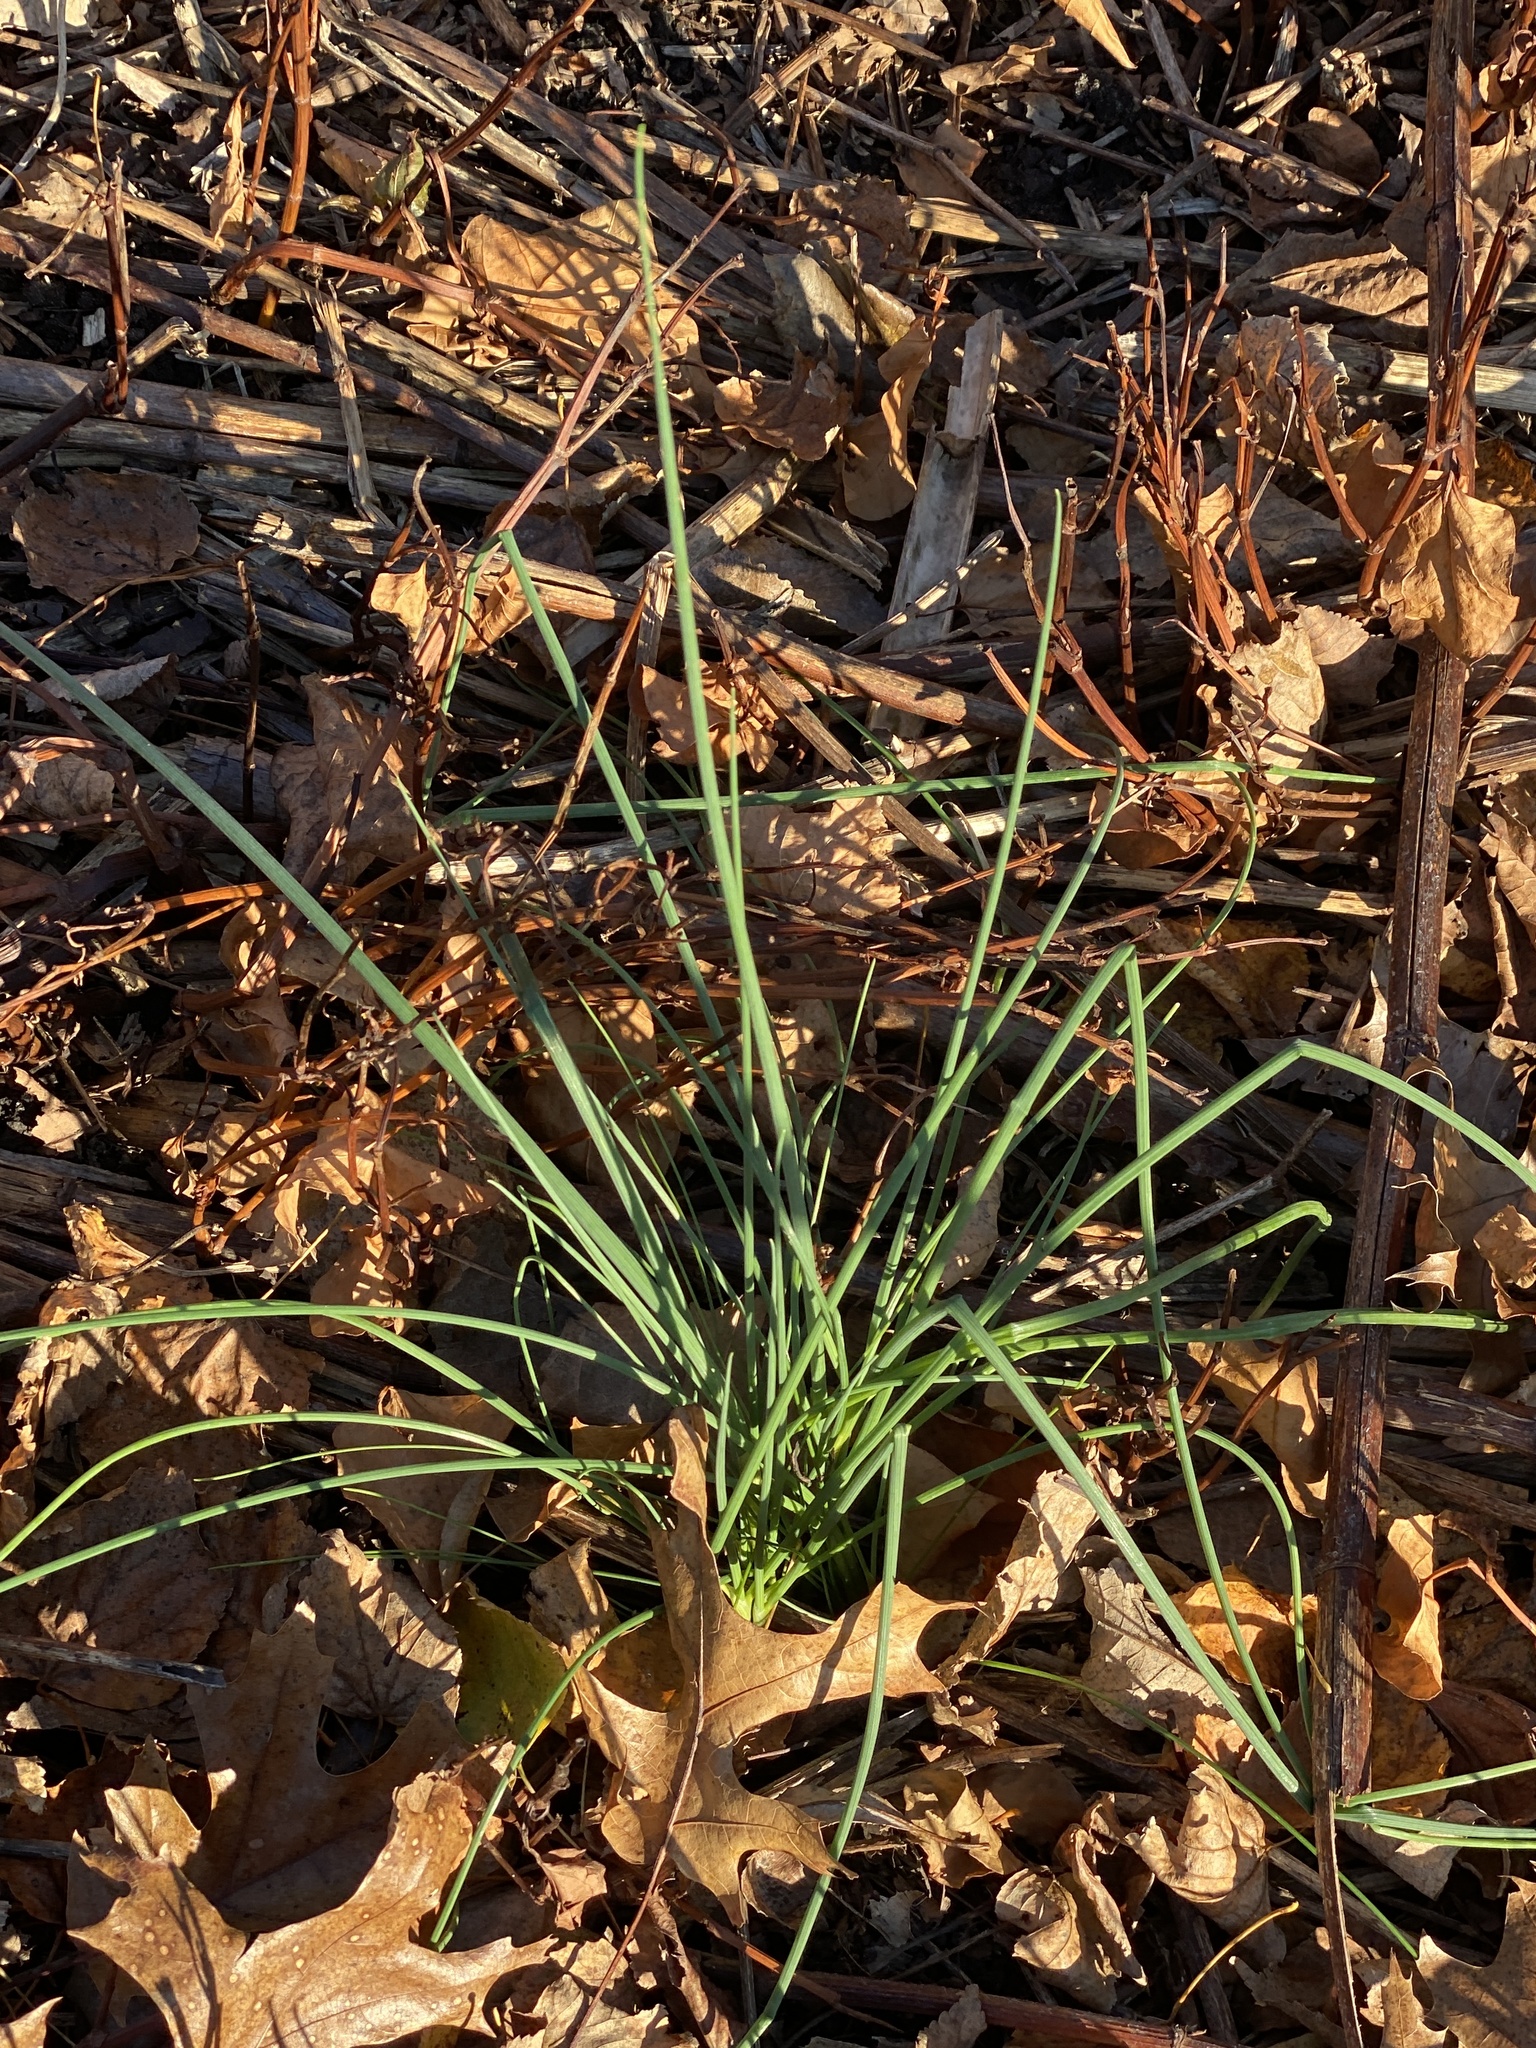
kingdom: Plantae
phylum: Tracheophyta
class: Liliopsida
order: Asparagales
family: Amaryllidaceae
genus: Allium
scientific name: Allium vineale
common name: Crow garlic
